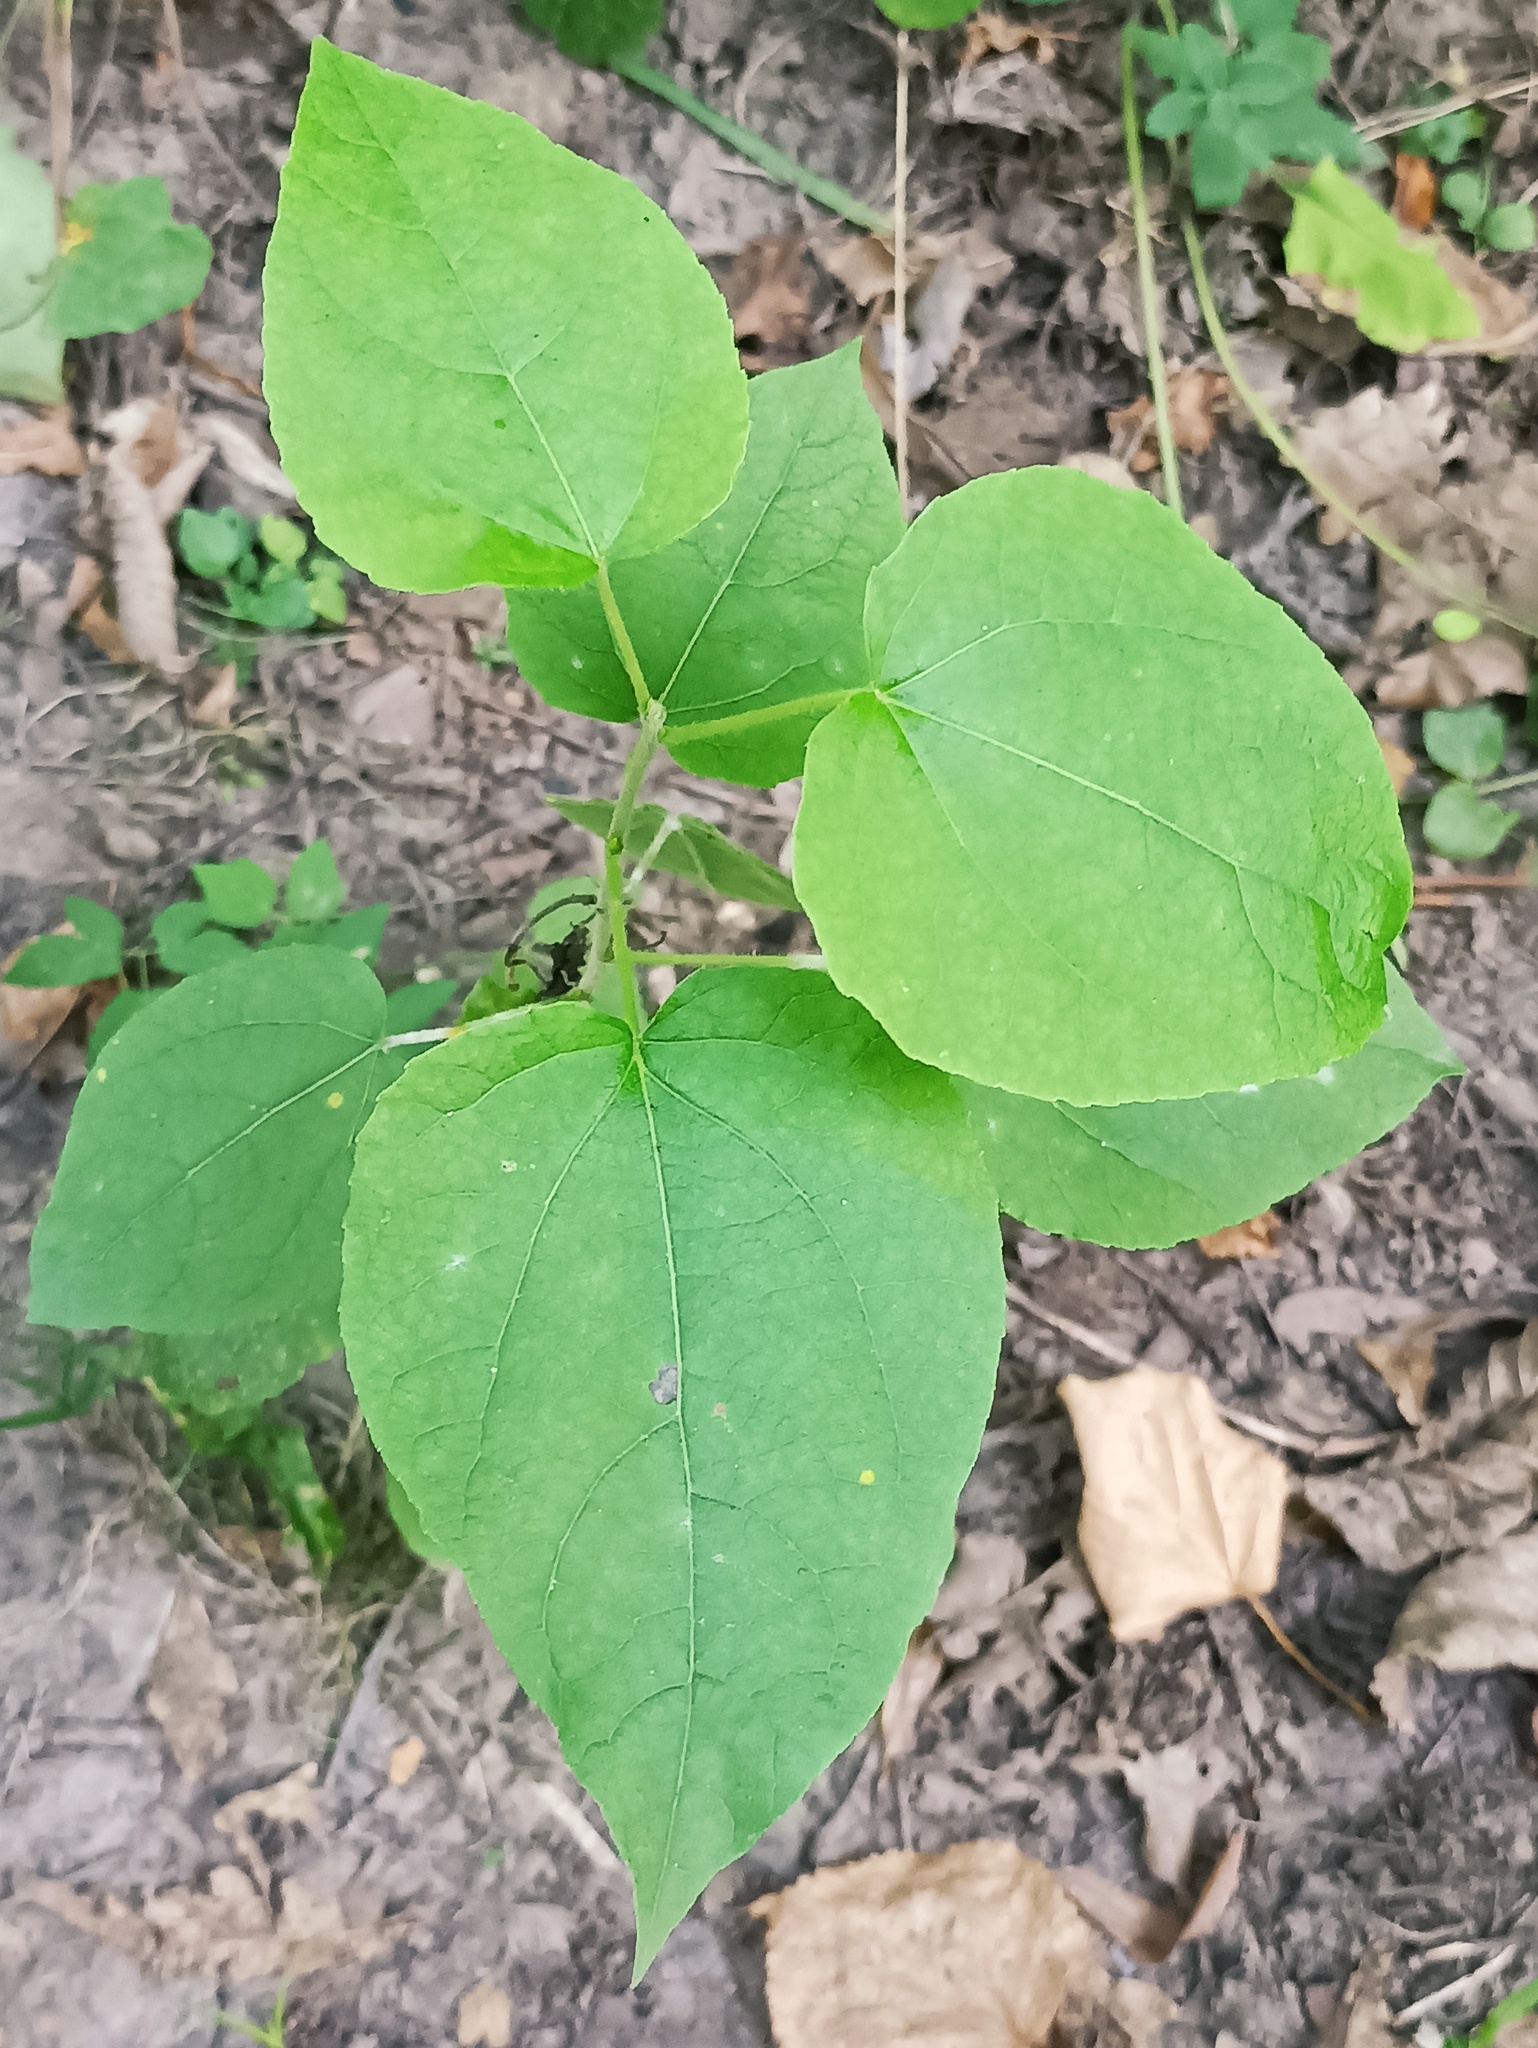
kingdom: Plantae
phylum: Tracheophyta
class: Magnoliopsida
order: Malpighiales
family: Salicaceae
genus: Populus
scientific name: Populus tremula
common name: European aspen
